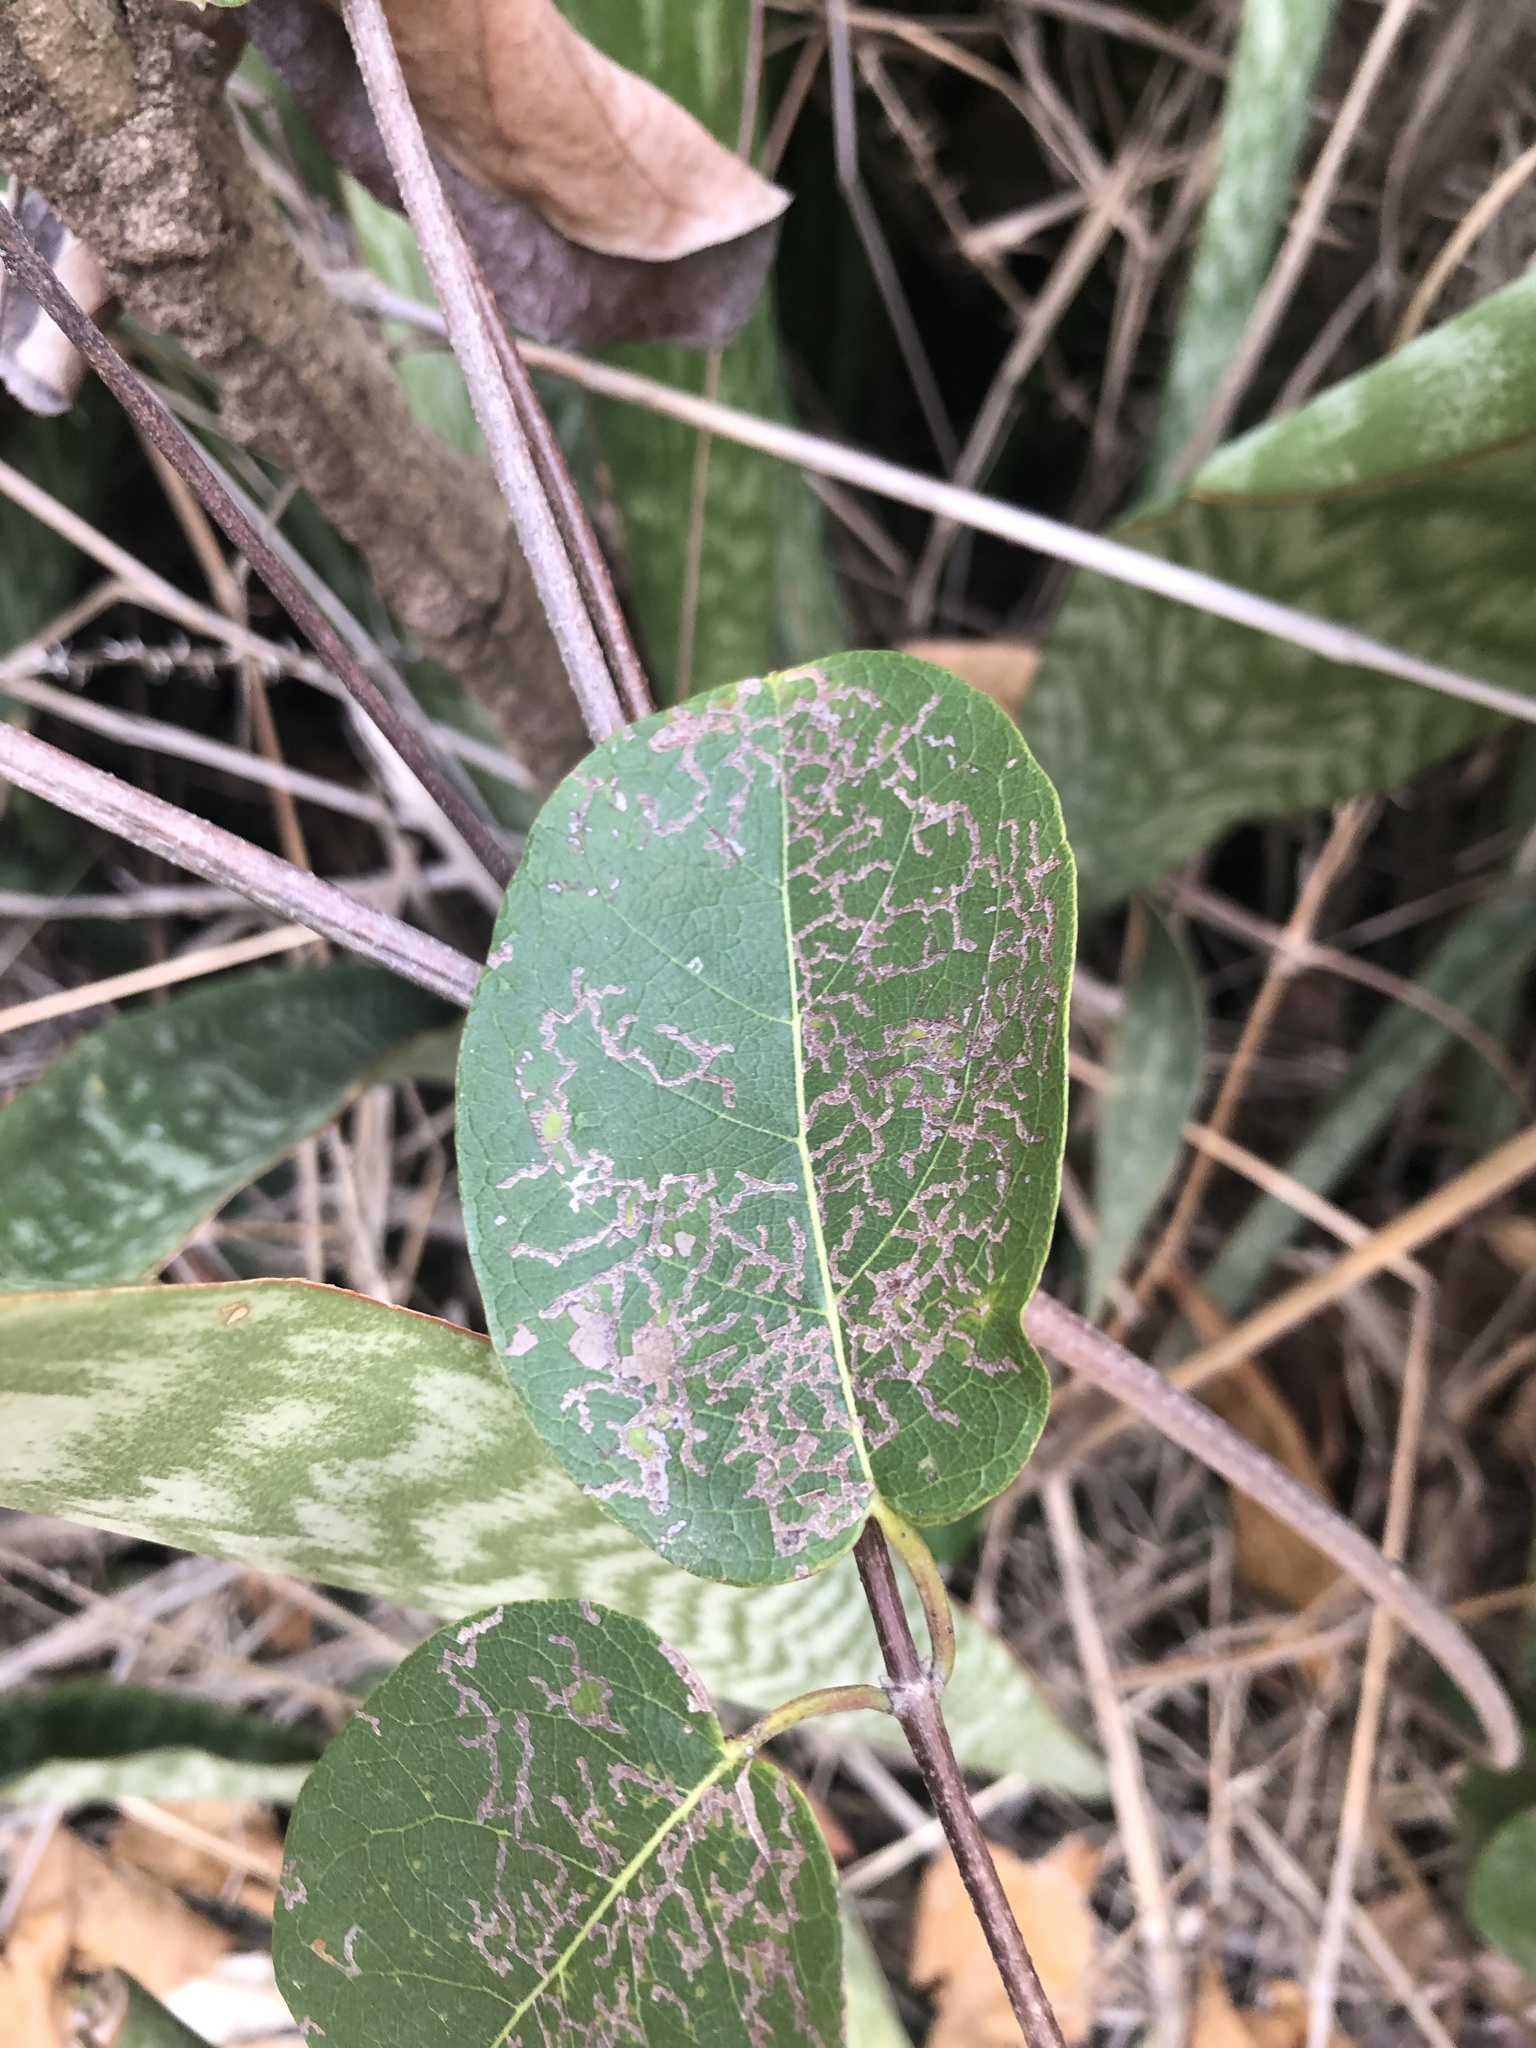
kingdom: Plantae
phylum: Tracheophyta
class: Magnoliopsida
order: Malpighiales
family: Malpighiaceae
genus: Stigmaphyllon
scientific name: Stigmaphyllon emarginatum
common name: Monarch amazonvine
